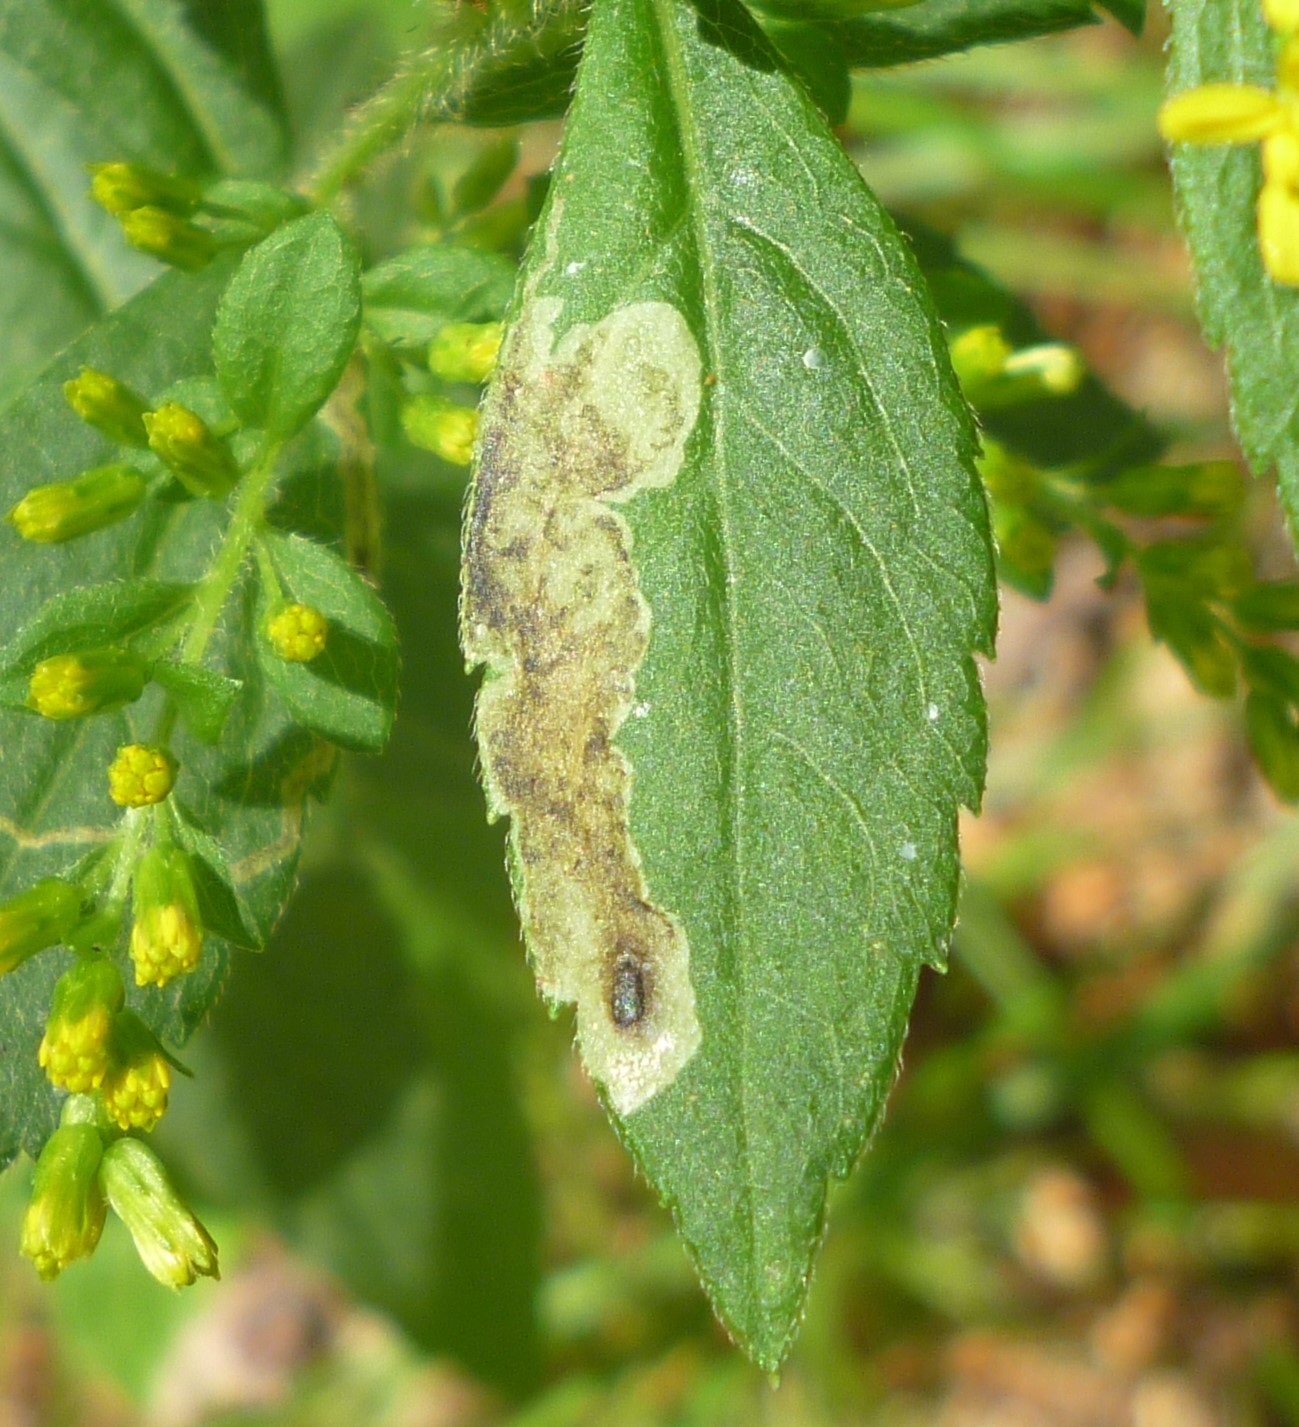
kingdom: Animalia
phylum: Arthropoda
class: Insecta
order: Diptera
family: Agromyzidae
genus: Calycomyza
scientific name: Calycomyza solidaginis
